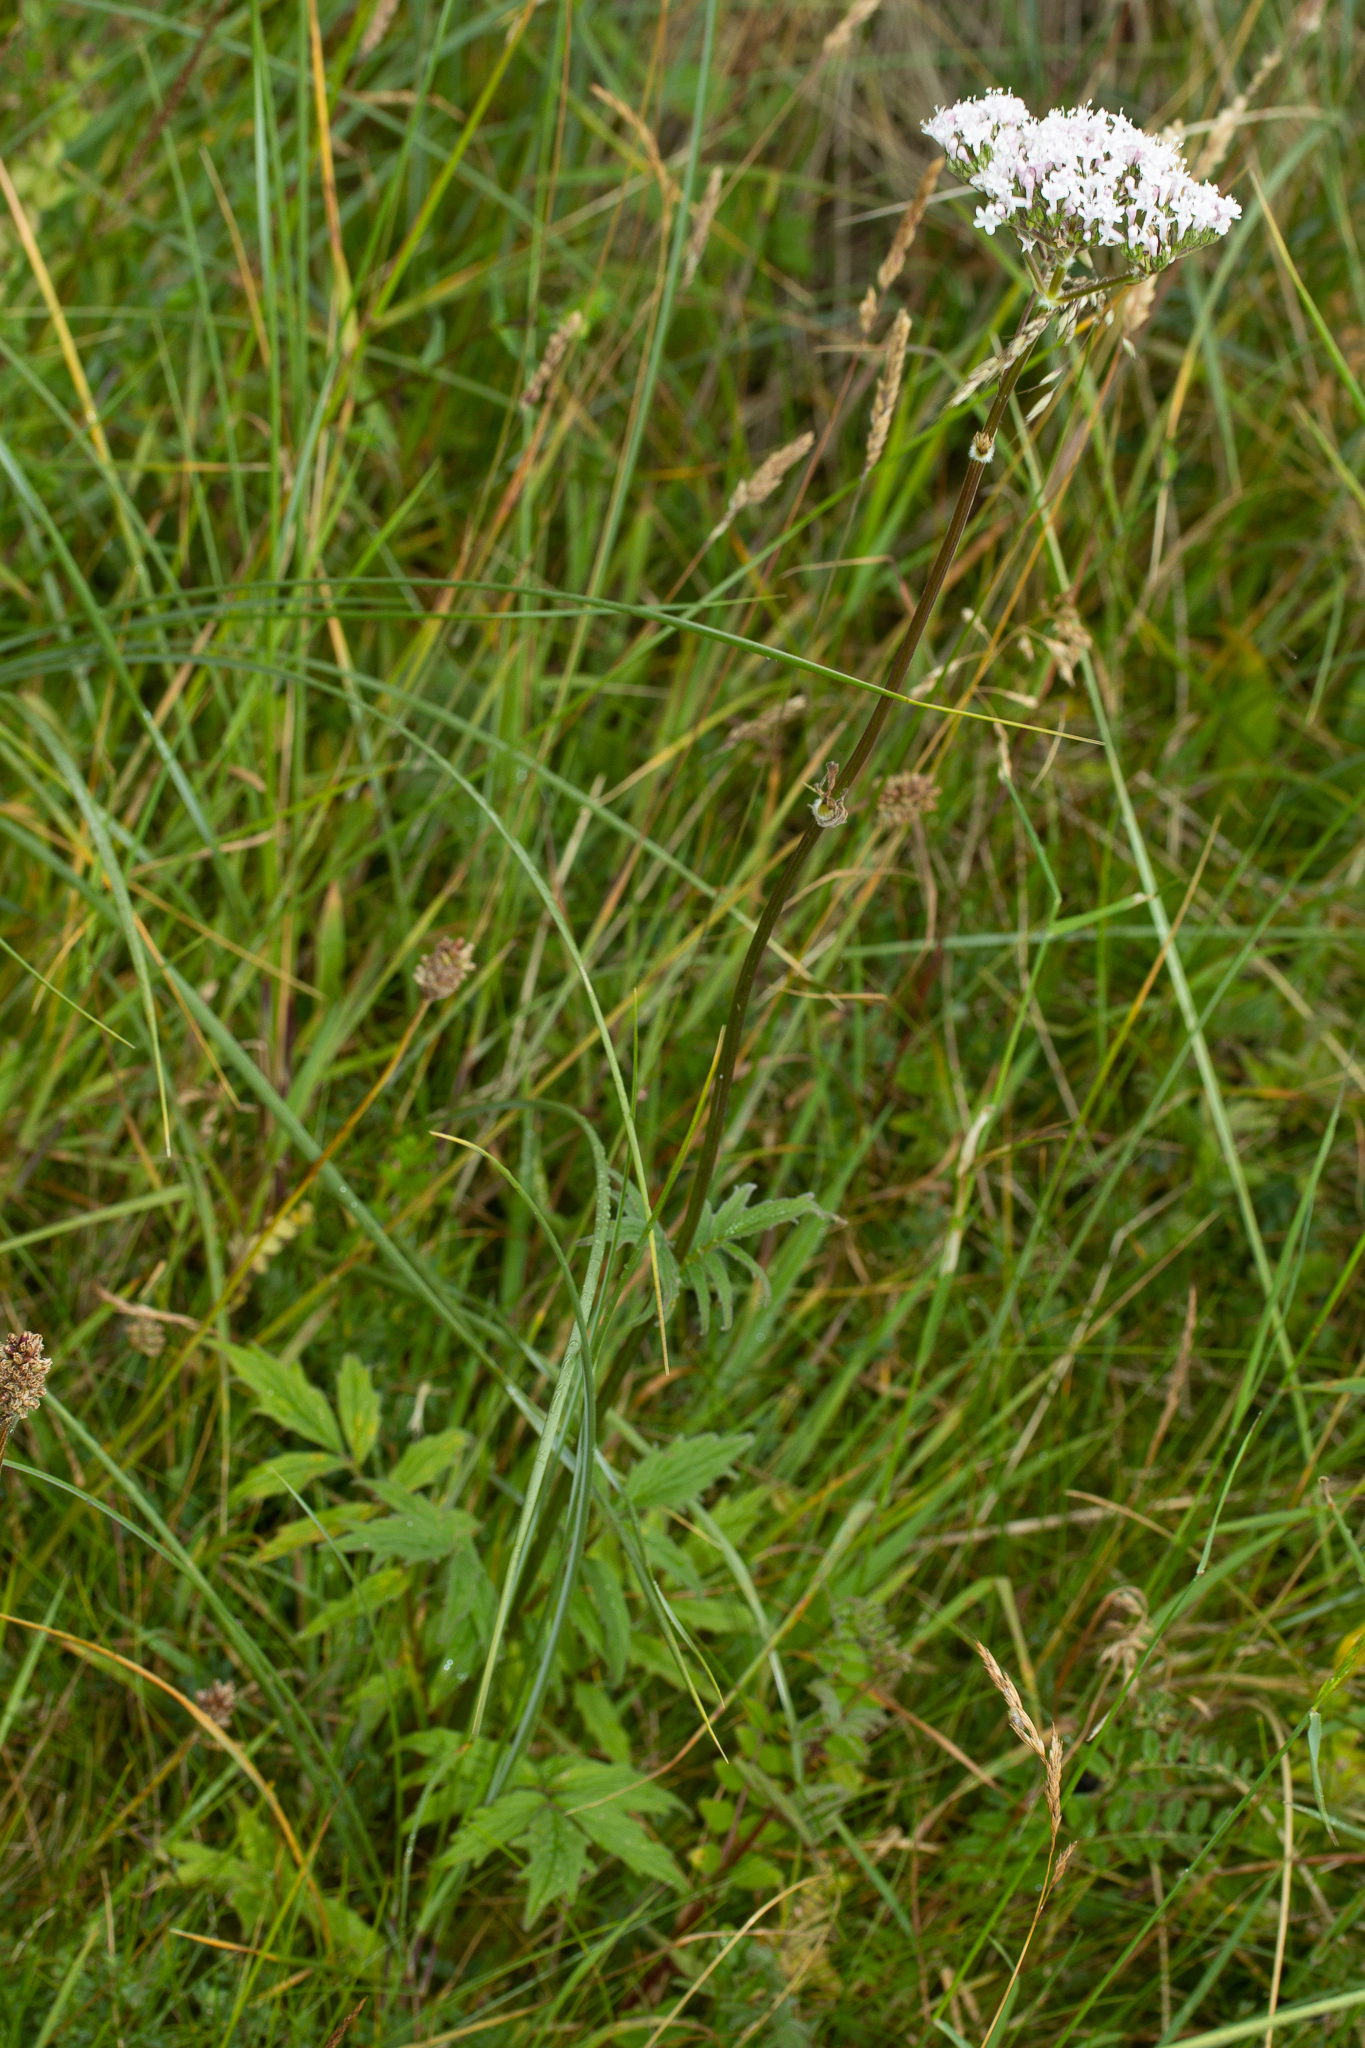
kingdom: Plantae
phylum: Tracheophyta
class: Magnoliopsida
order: Dipsacales
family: Caprifoliaceae
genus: Valeriana
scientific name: Valeriana officinalis
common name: Common valerian
